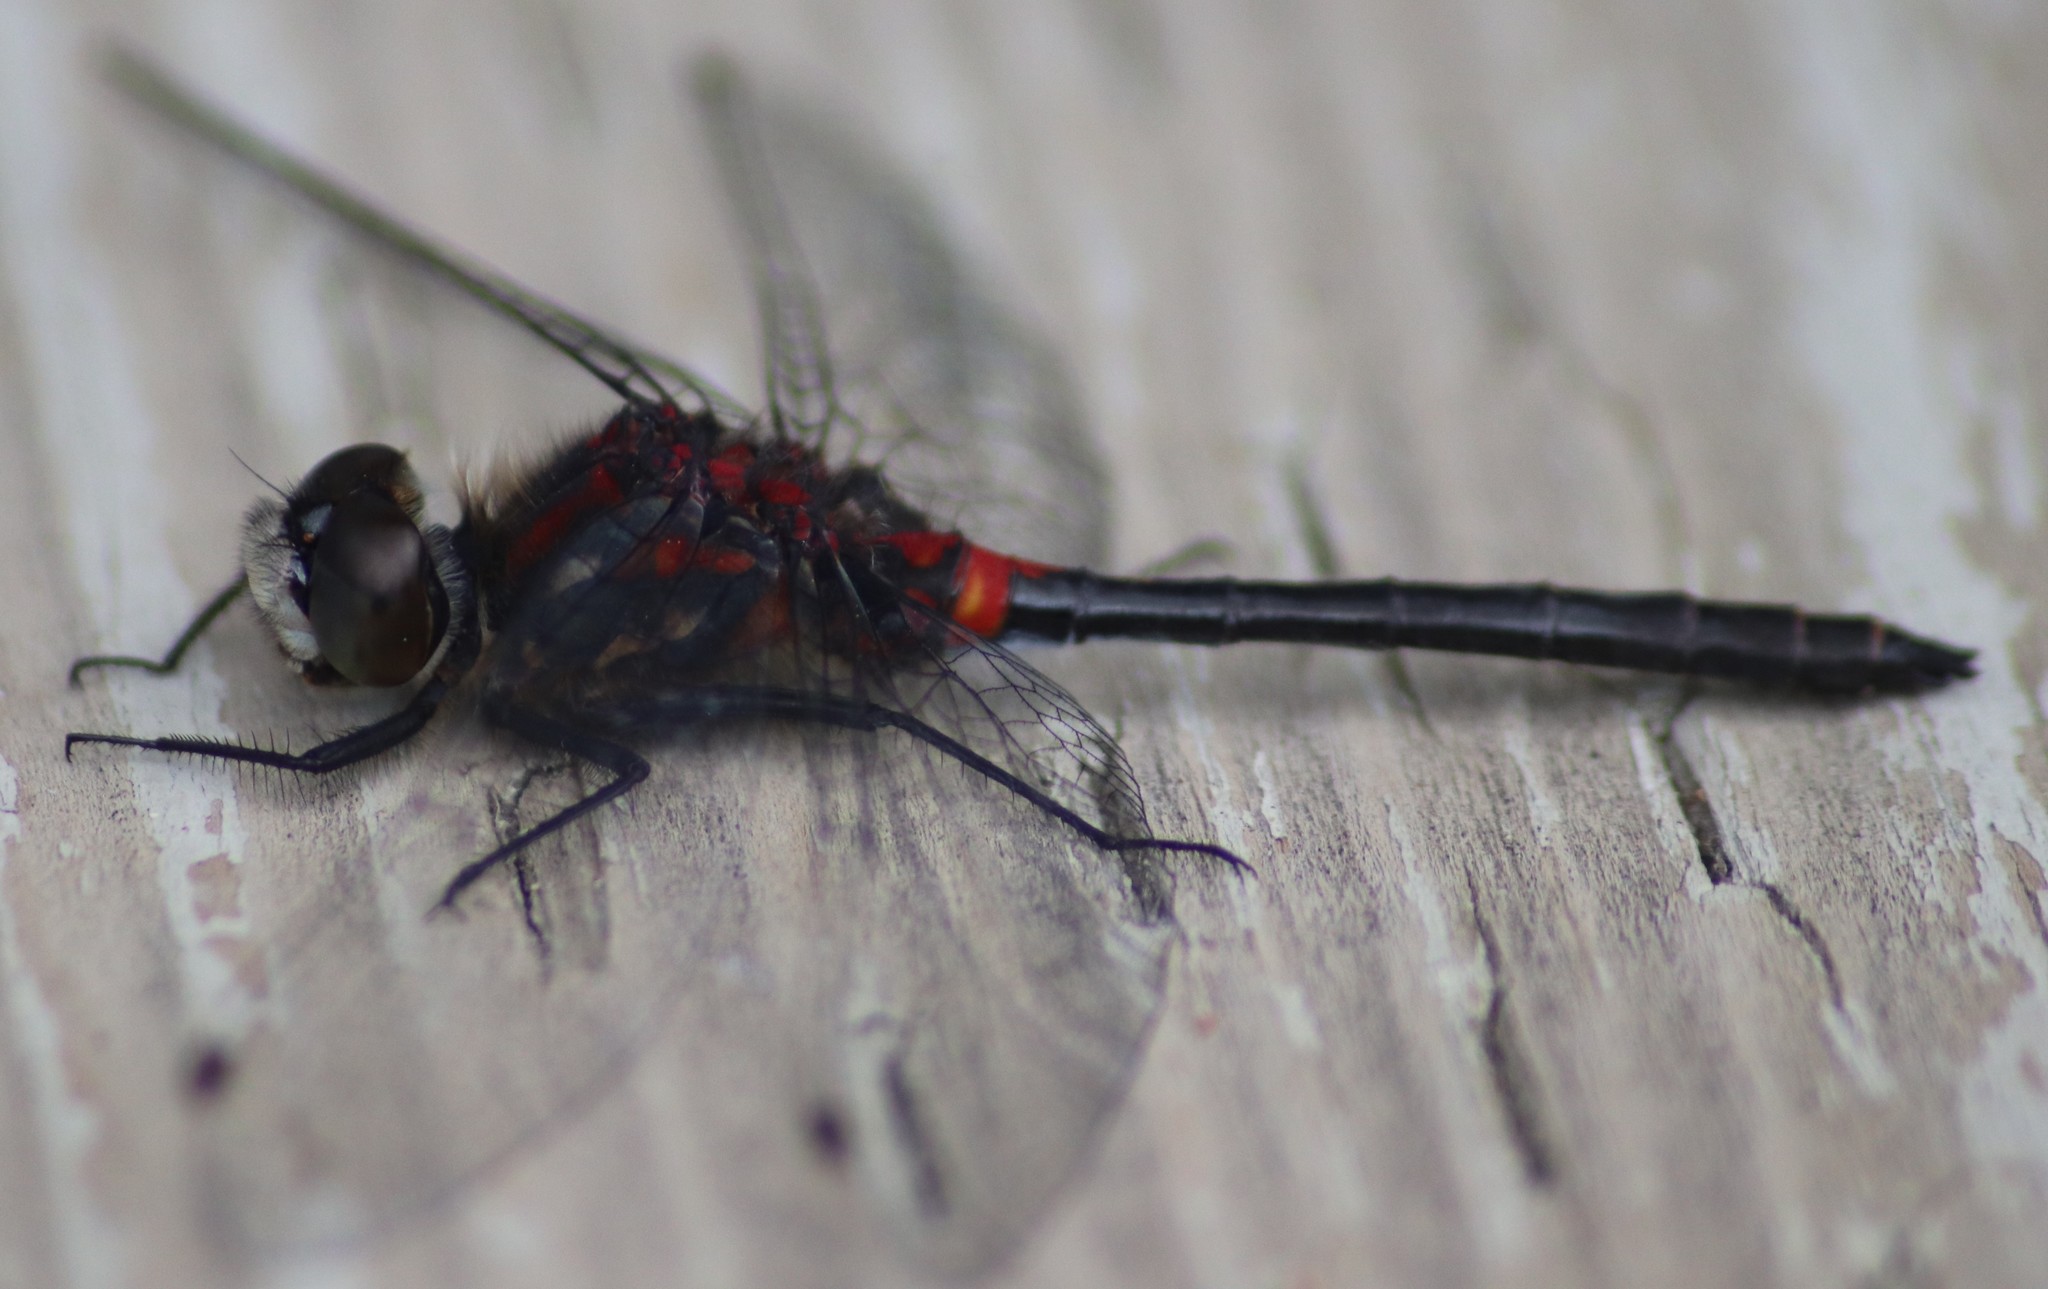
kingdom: Animalia
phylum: Arthropoda
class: Insecta
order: Odonata
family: Libellulidae
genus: Leucorrhinia
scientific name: Leucorrhinia proxima
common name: Belted whiteface
